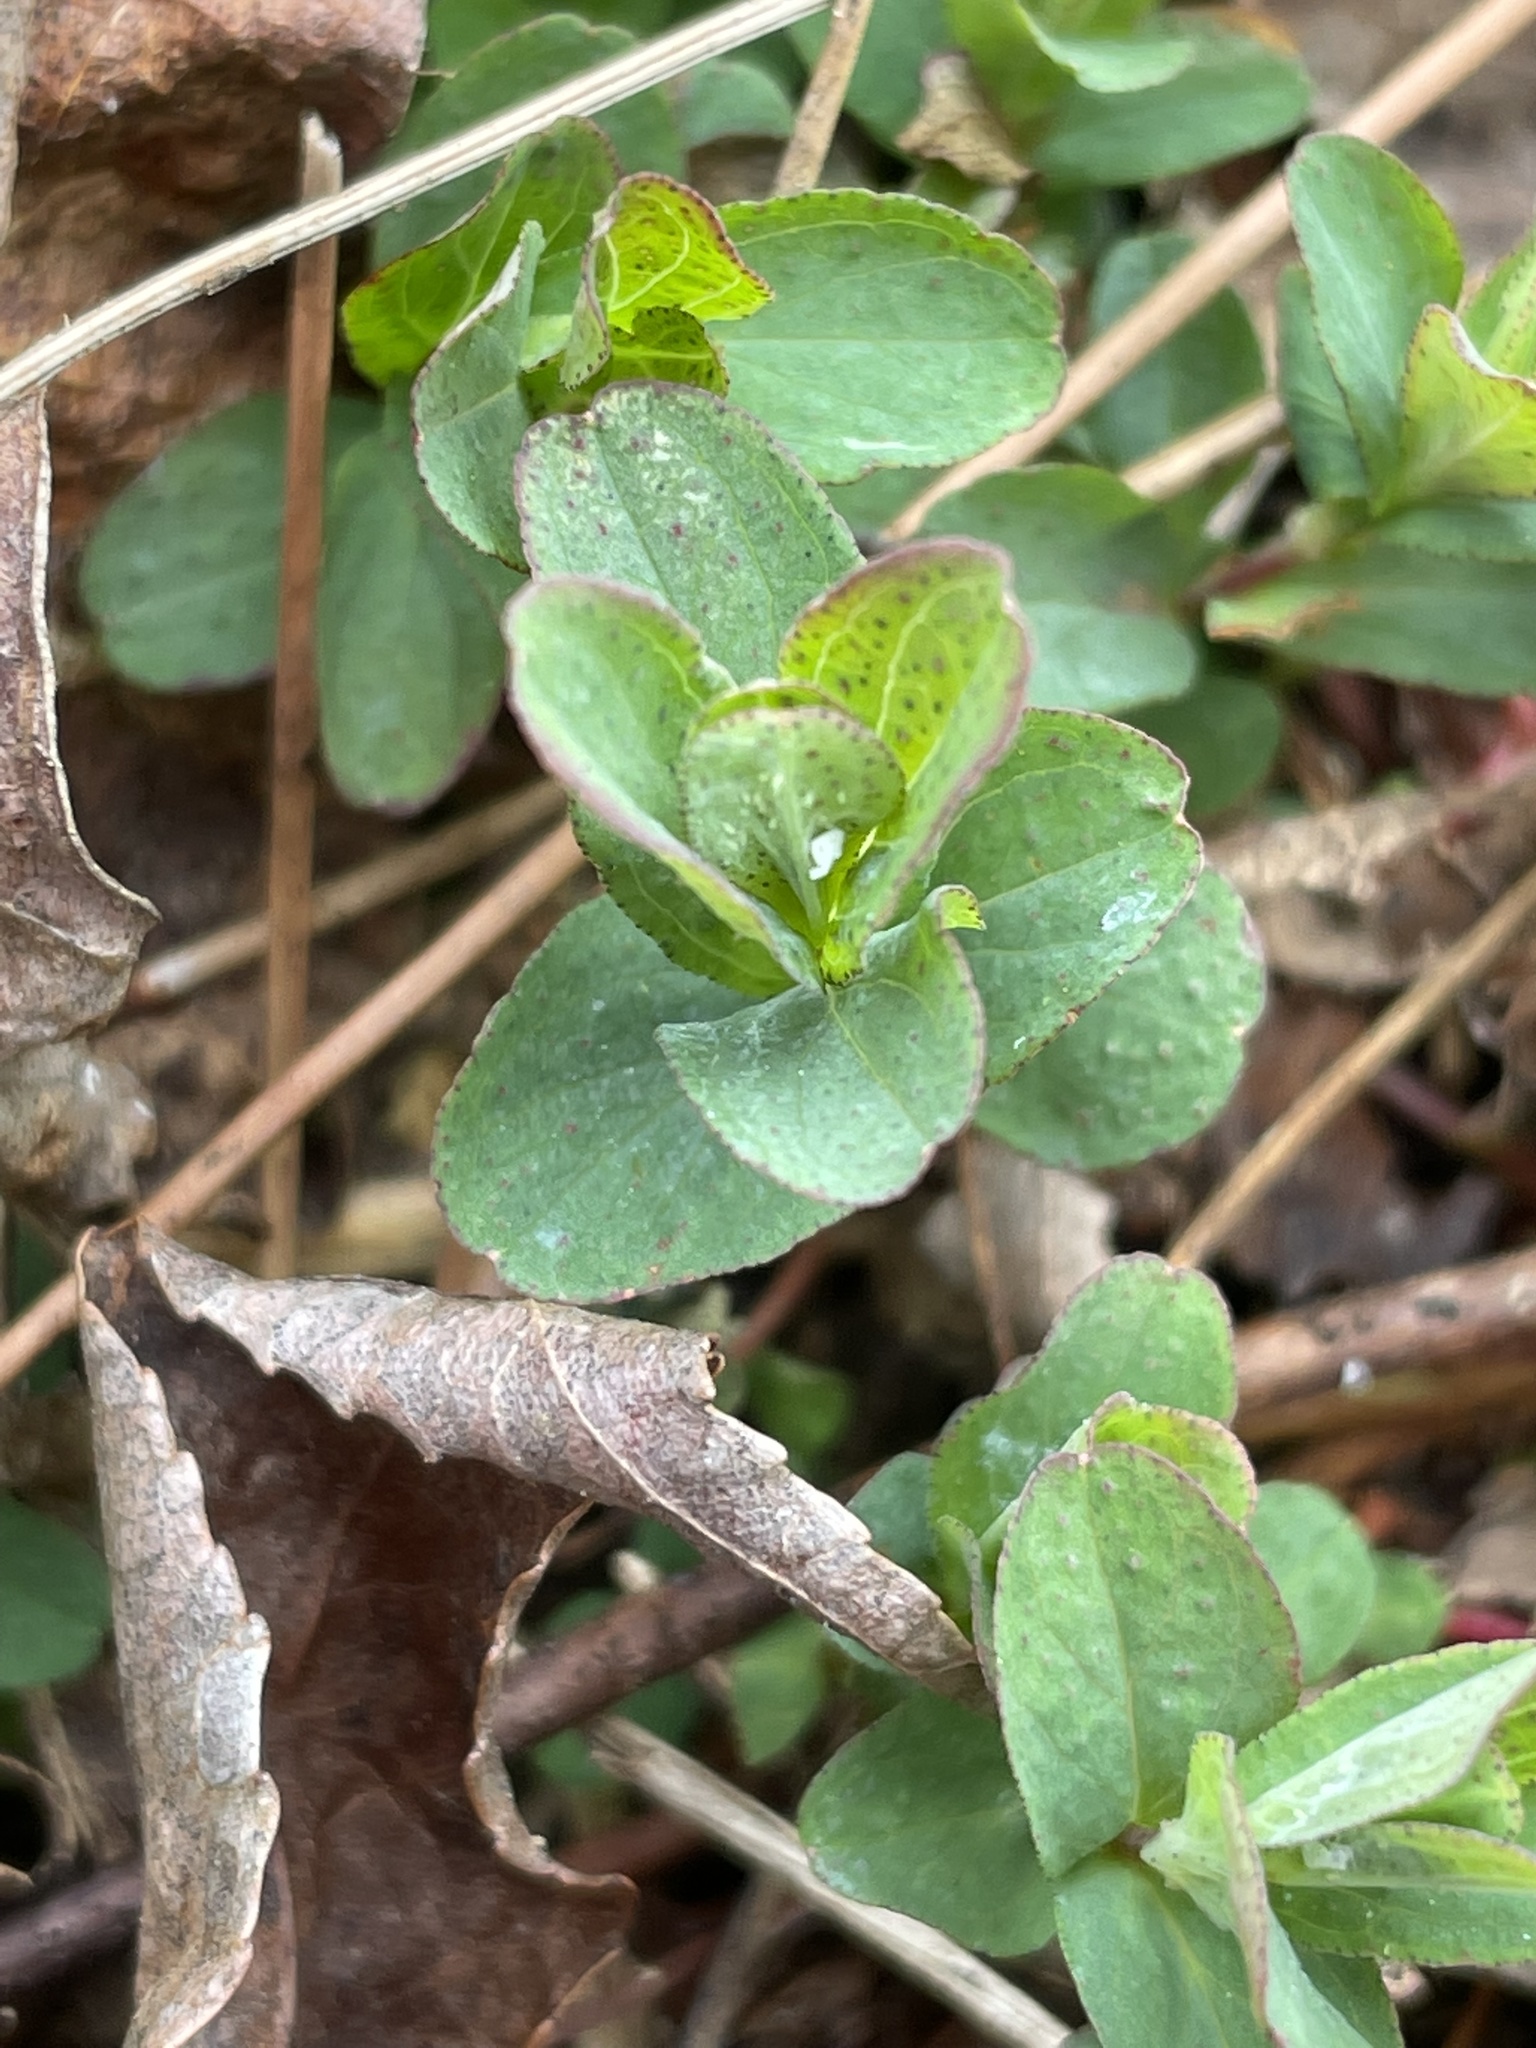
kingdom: Plantae
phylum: Tracheophyta
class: Magnoliopsida
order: Malpighiales
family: Hypericaceae
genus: Hypericum
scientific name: Hypericum punctatum
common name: Spotted st. john's-wort
